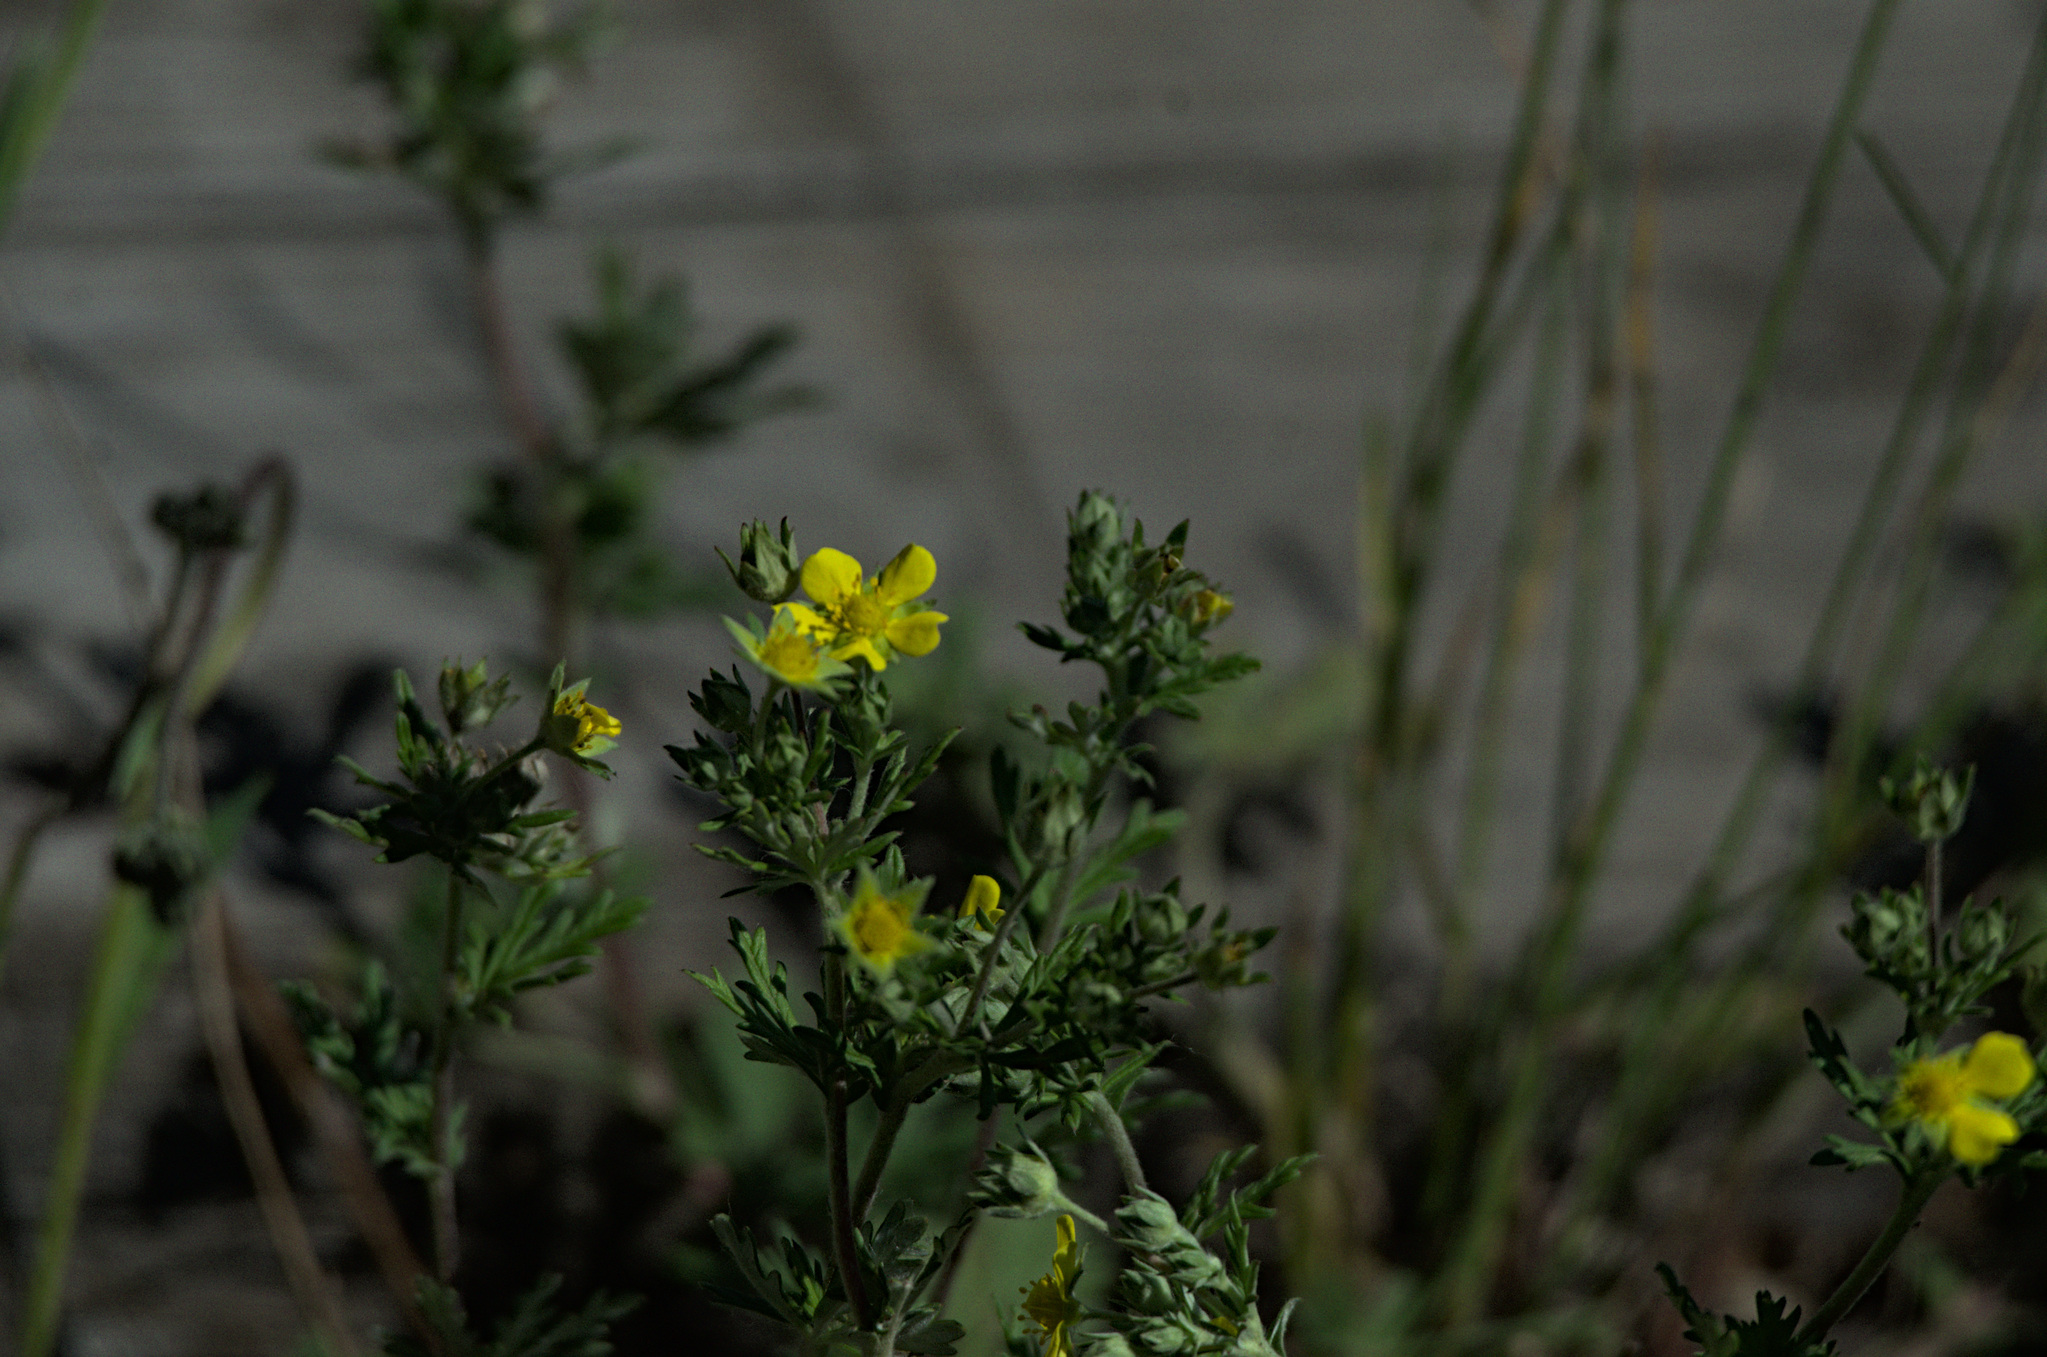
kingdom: Plantae
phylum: Tracheophyta
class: Magnoliopsida
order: Rosales
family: Rosaceae
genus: Potentilla
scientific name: Potentilla argentea
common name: Hoary cinquefoil
